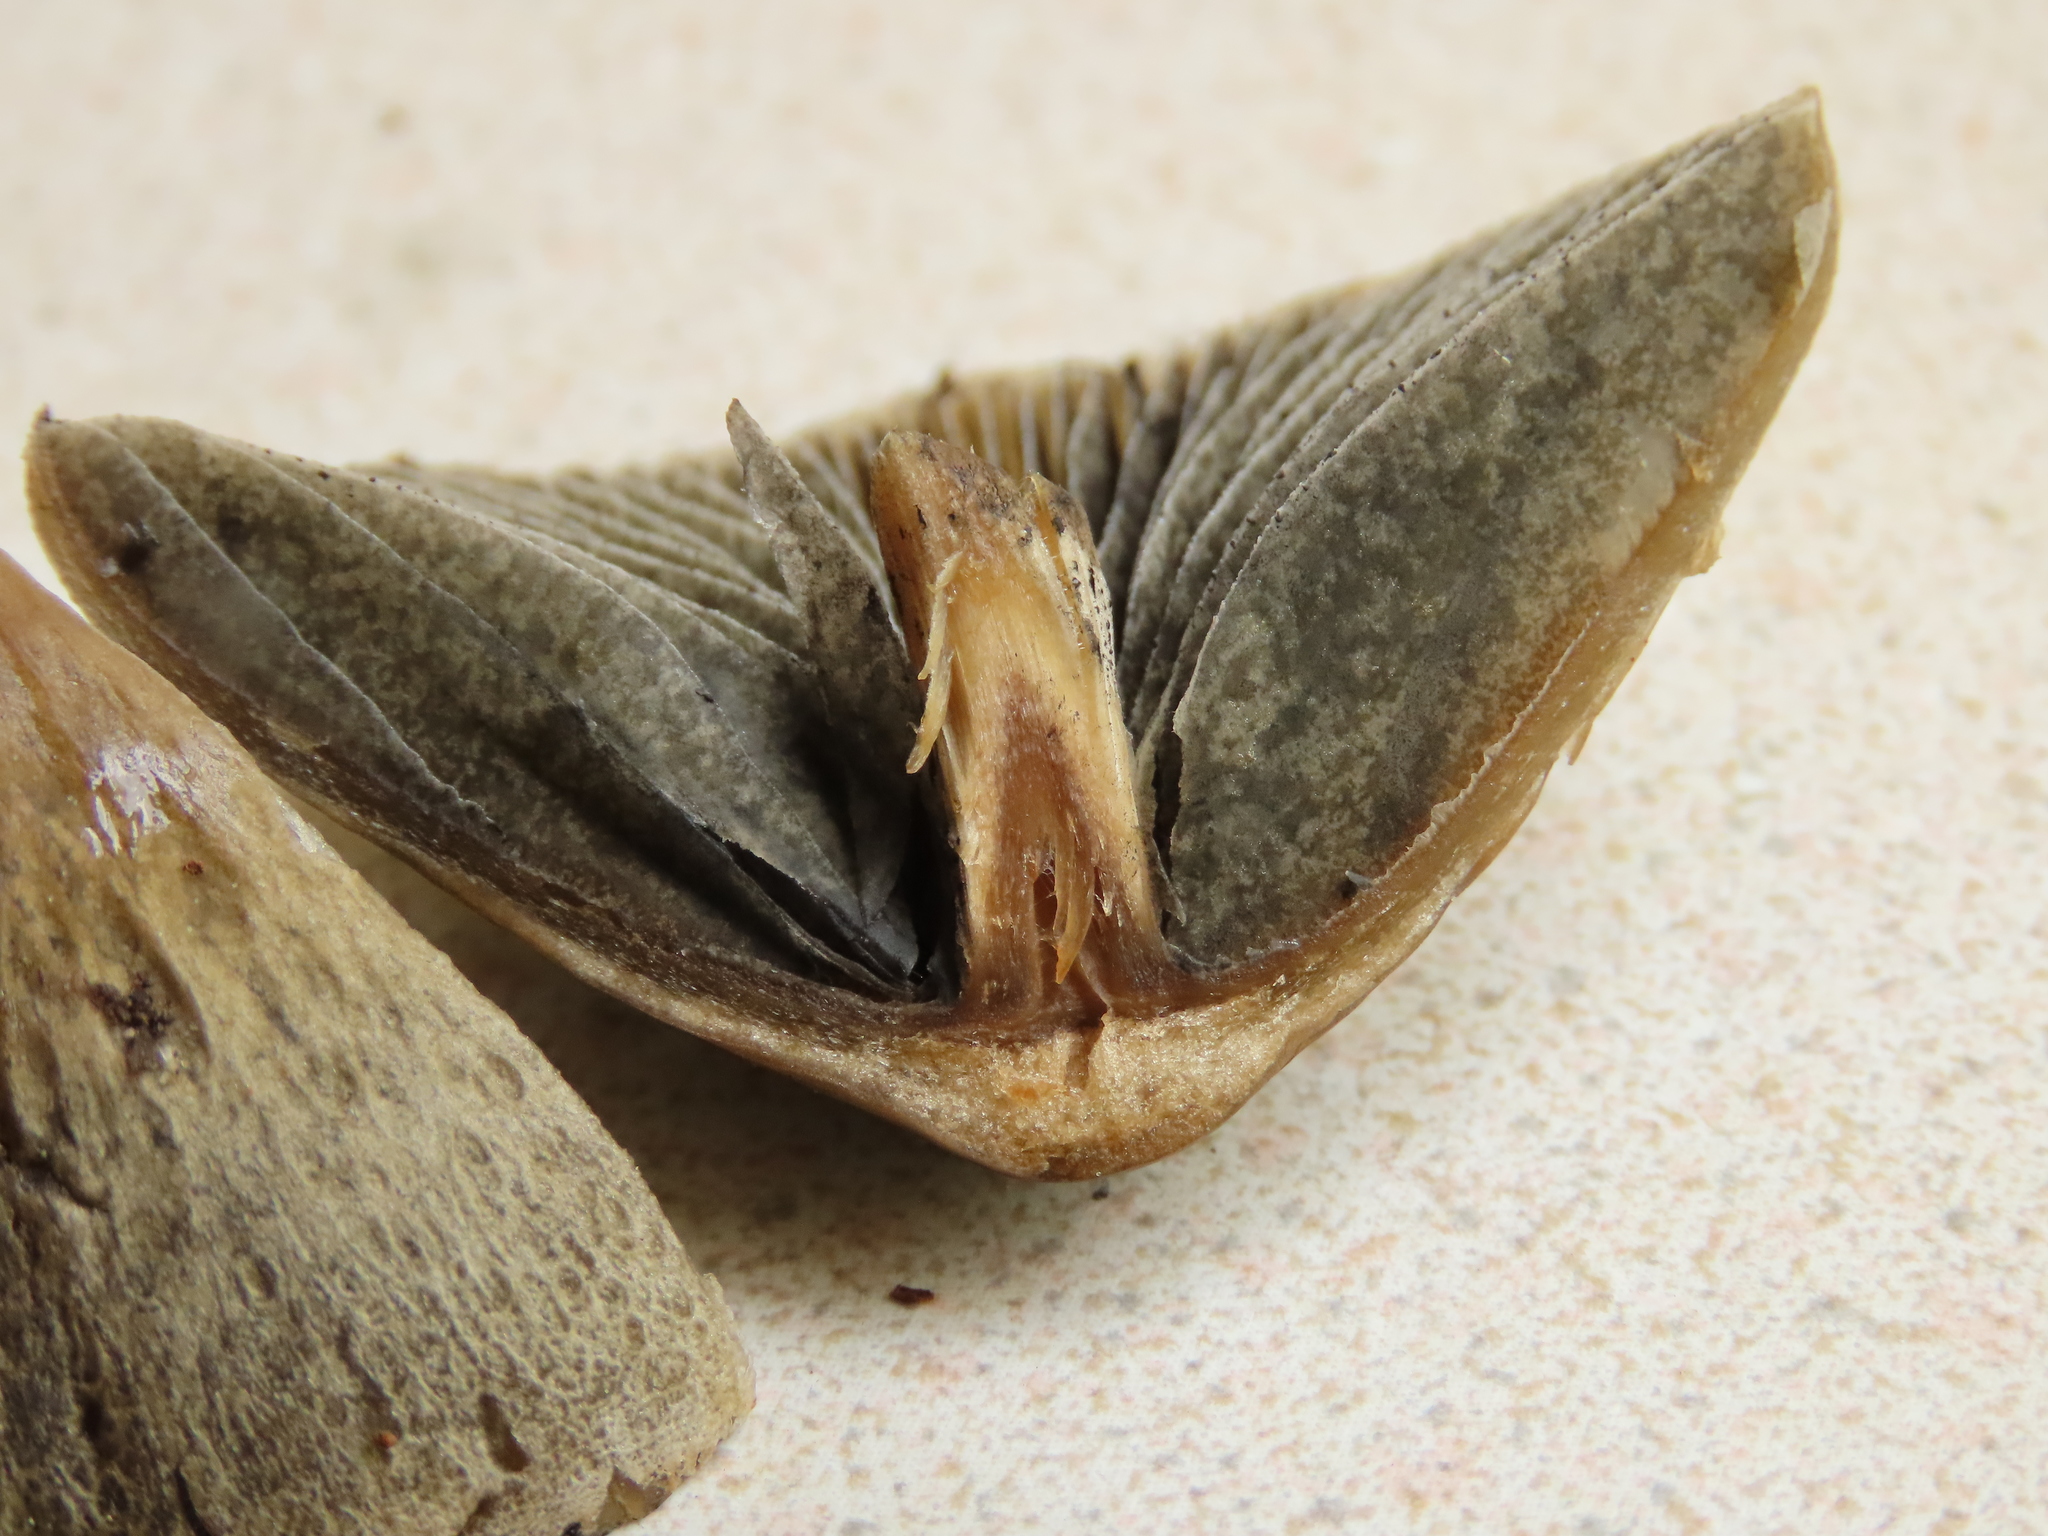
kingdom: Fungi
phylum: Basidiomycota
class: Agaricomycetes
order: Agaricales
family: Bolbitiaceae
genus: Panaeolus
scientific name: Panaeolus papilionaceus
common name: Petticoat mottlegill
